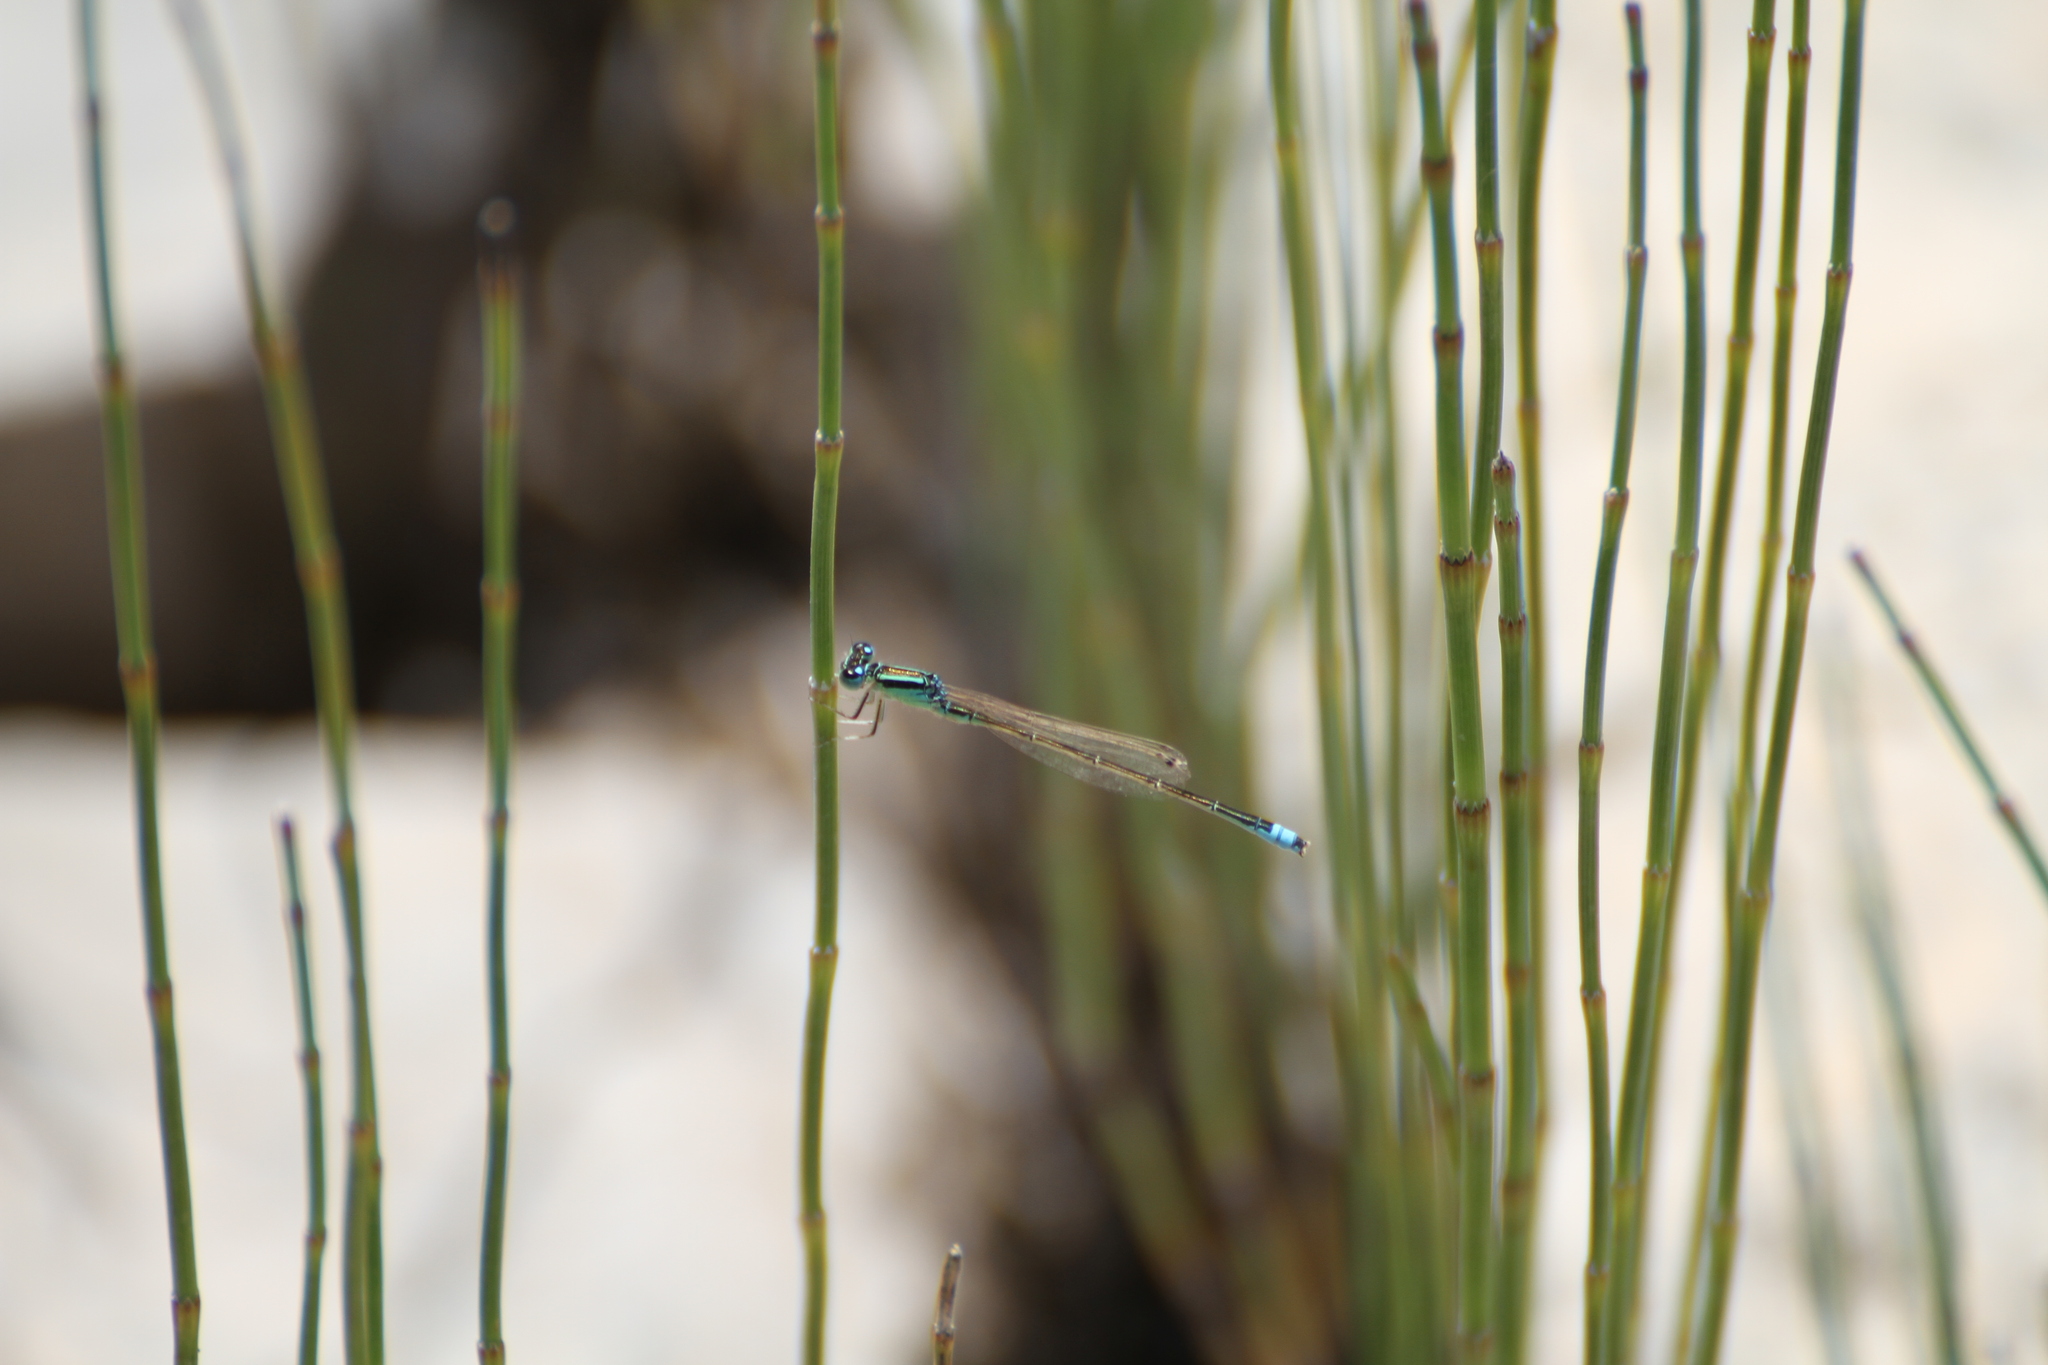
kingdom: Animalia
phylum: Arthropoda
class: Insecta
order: Odonata
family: Coenagrionidae
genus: Ischnura
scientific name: Ischnura pumilio
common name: Scarce blue-tailed damselfly
